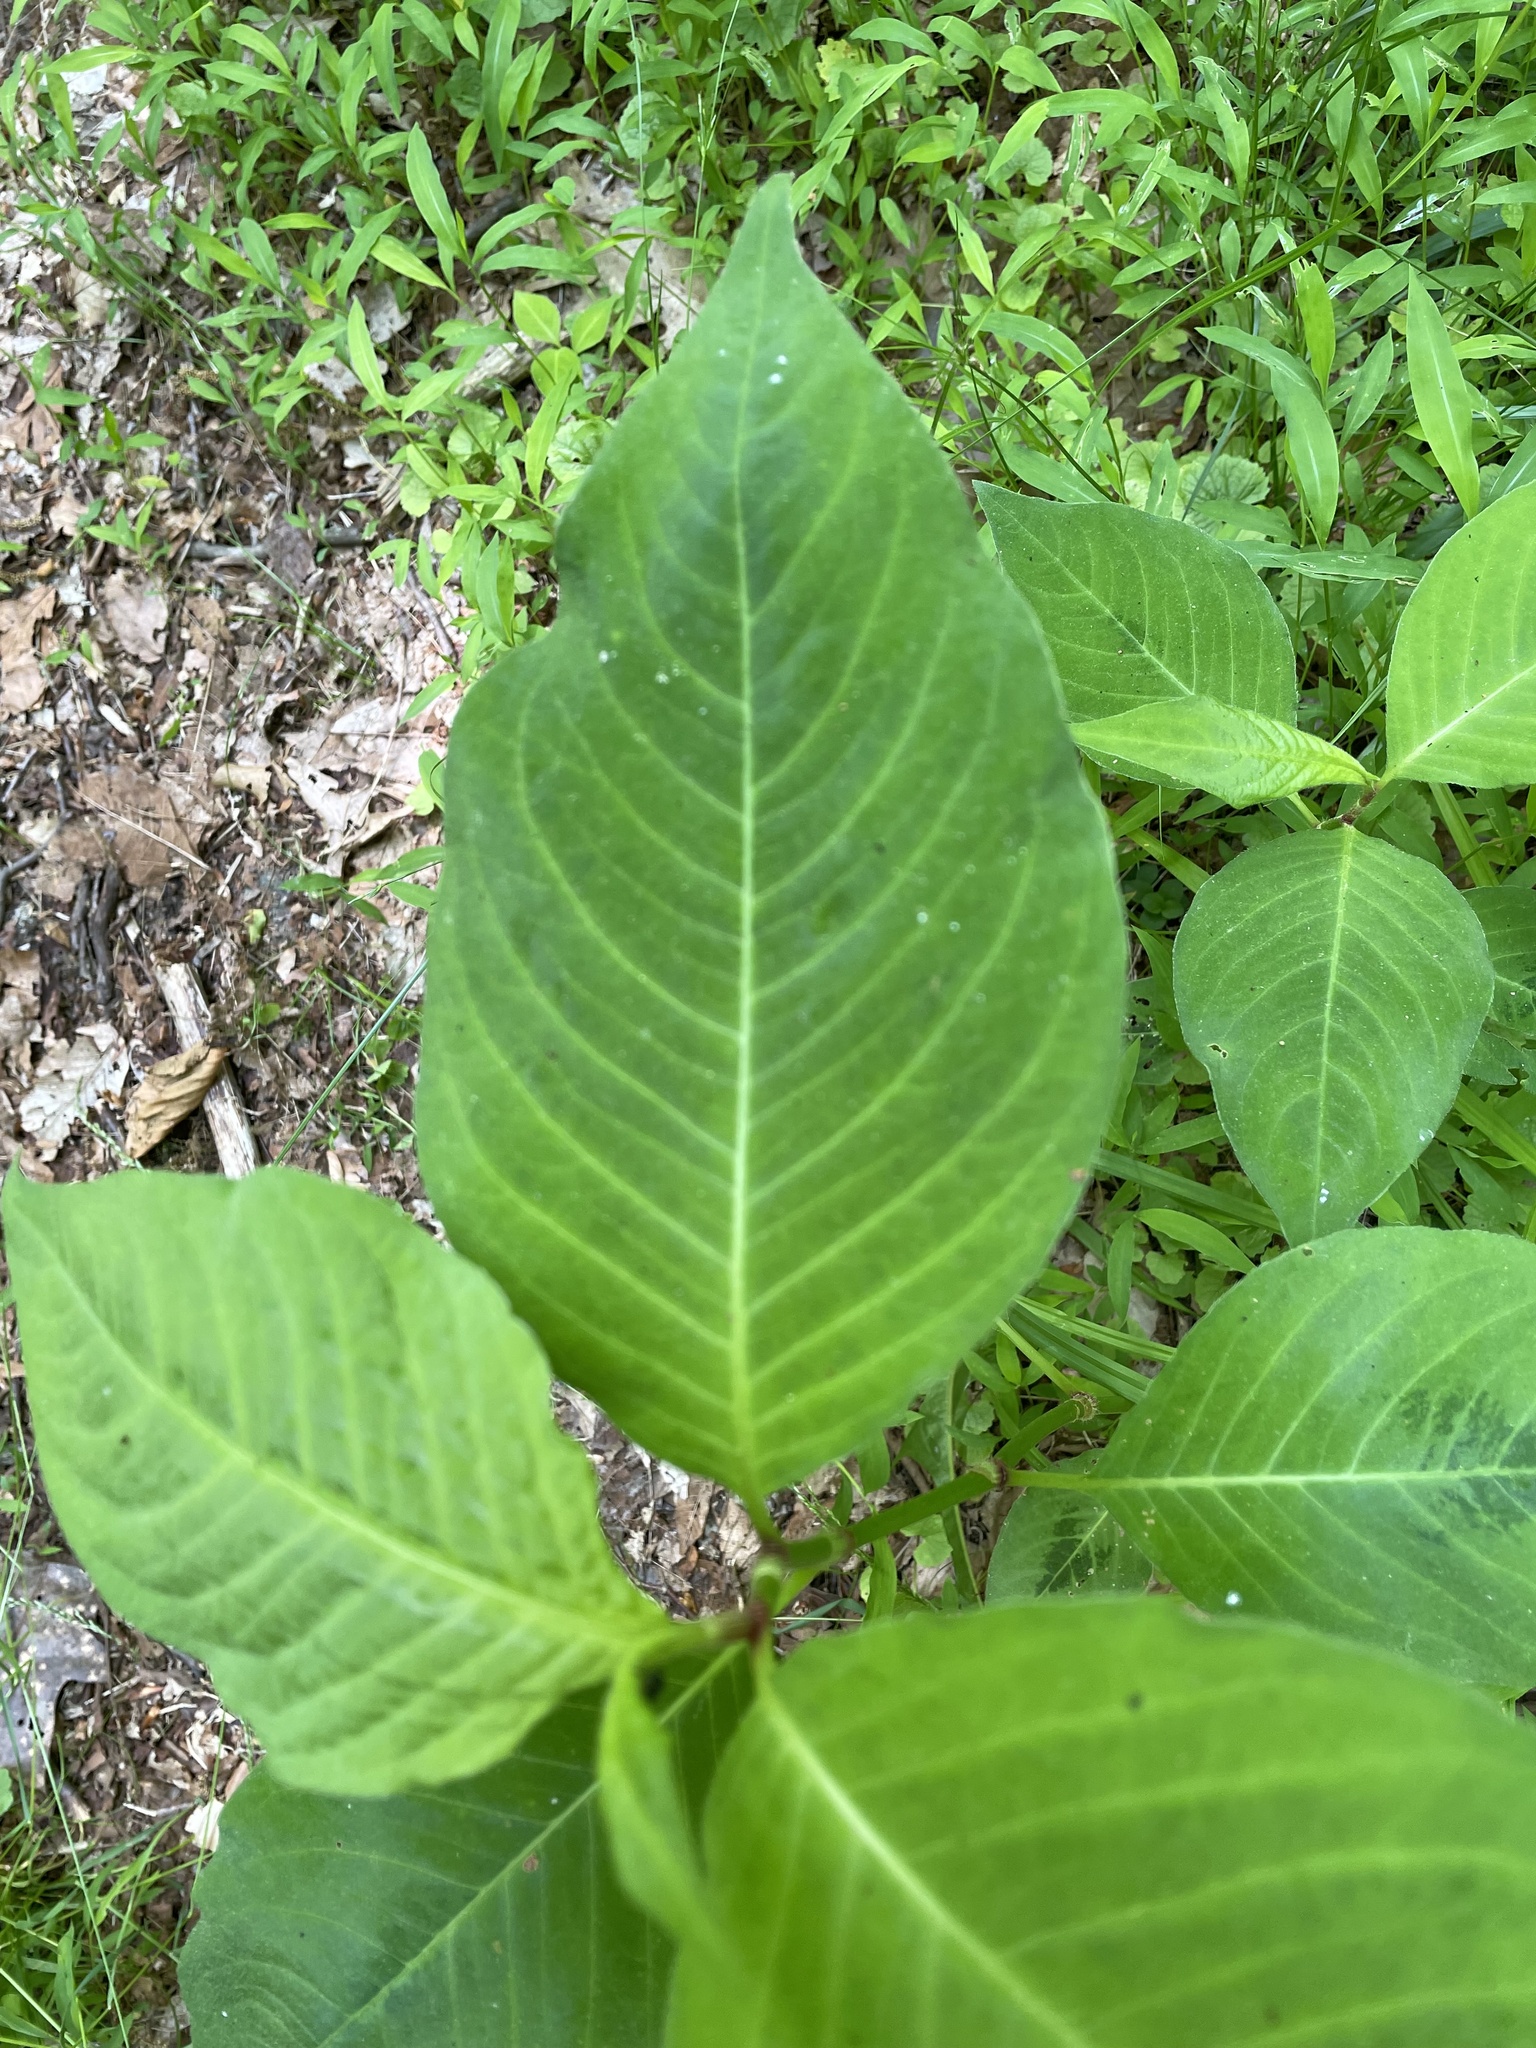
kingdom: Plantae
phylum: Tracheophyta
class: Magnoliopsida
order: Caryophyllales
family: Polygonaceae
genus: Persicaria
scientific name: Persicaria virginiana
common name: Jumpseed
